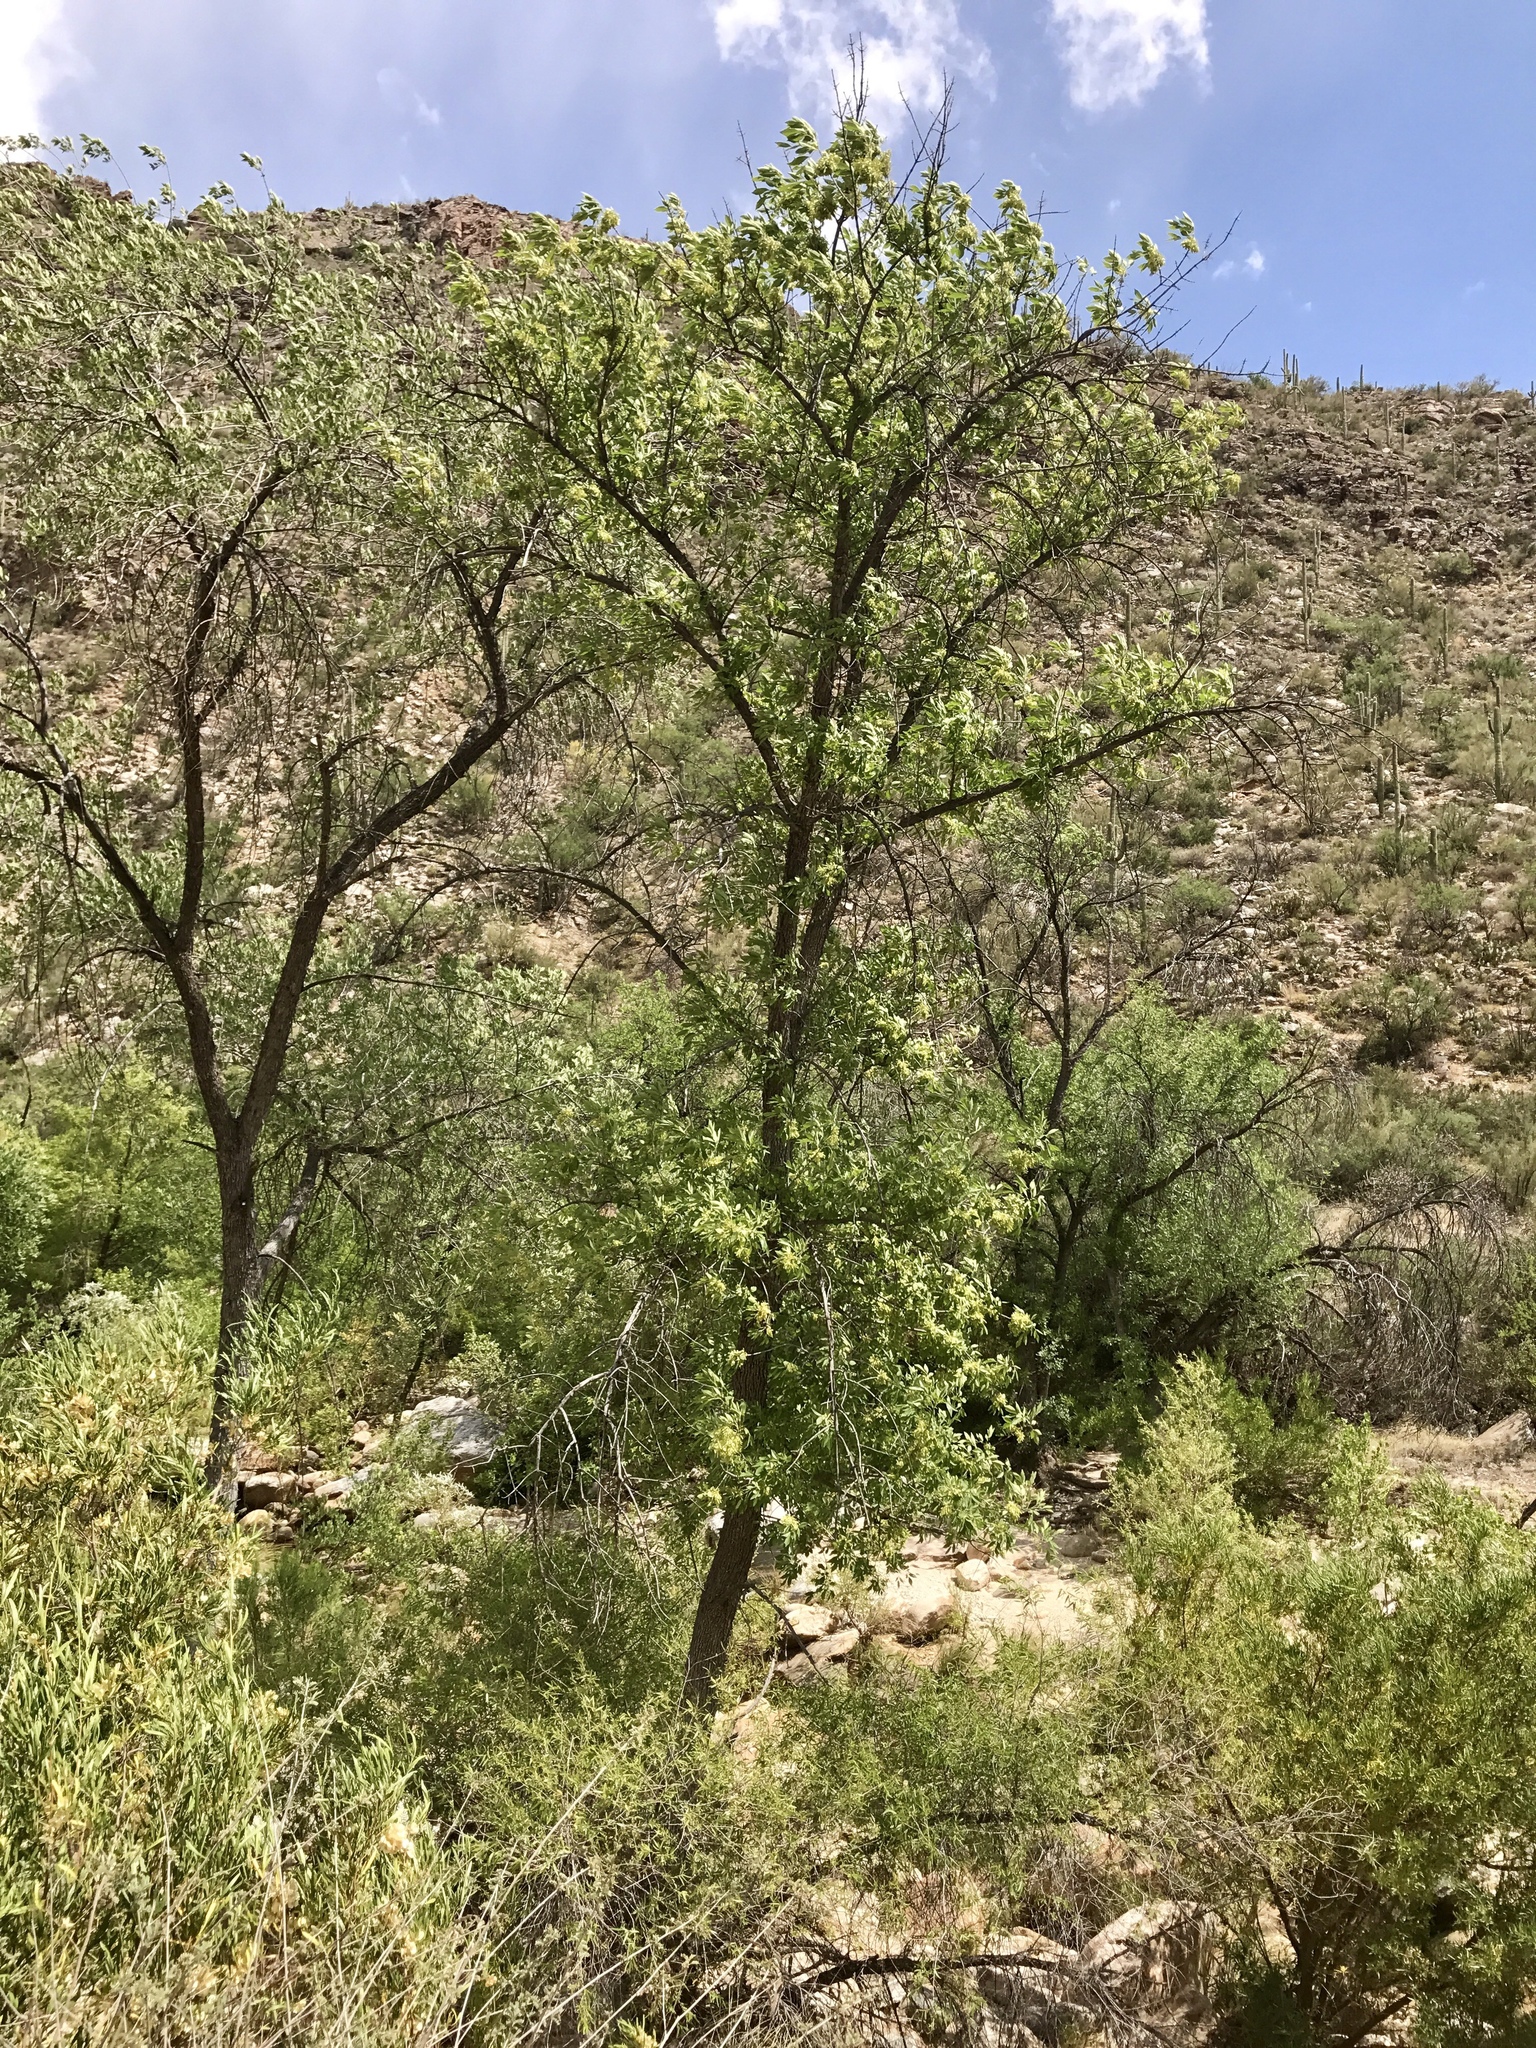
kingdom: Plantae
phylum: Tracheophyta
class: Magnoliopsida
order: Lamiales
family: Oleaceae
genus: Fraxinus
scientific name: Fraxinus velutina
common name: Arizon ash
